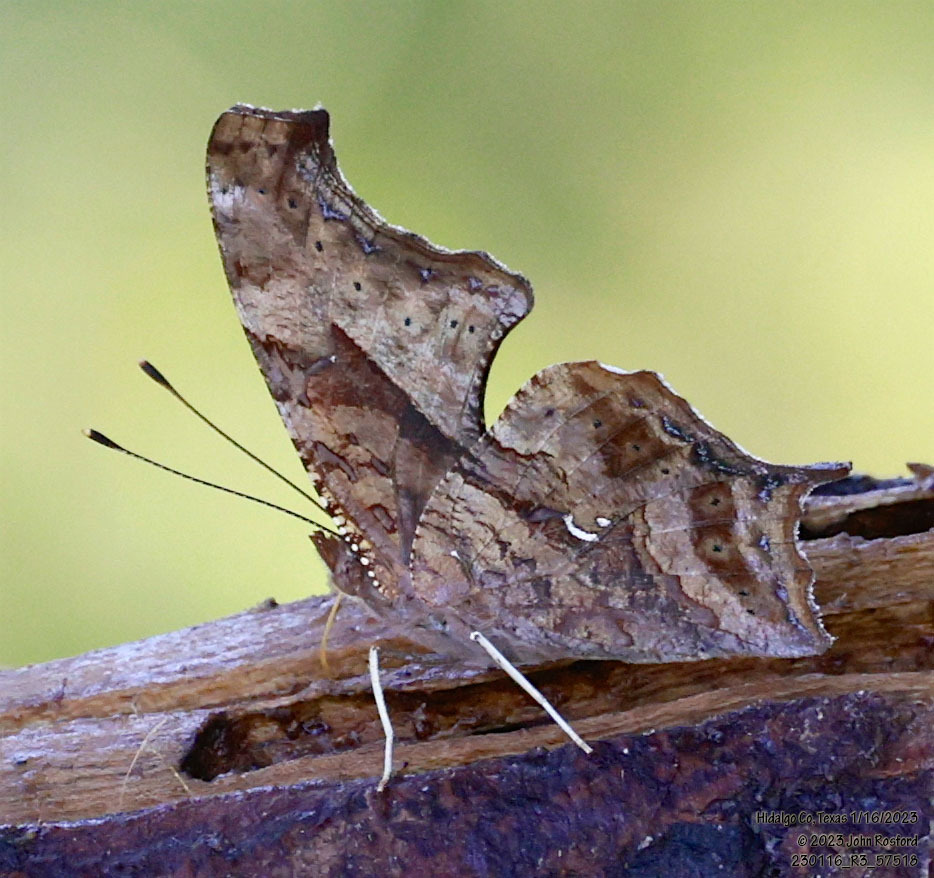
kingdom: Animalia
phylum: Arthropoda
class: Insecta
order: Lepidoptera
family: Nymphalidae
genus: Polygonia
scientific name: Polygonia interrogationis
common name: Question mark
